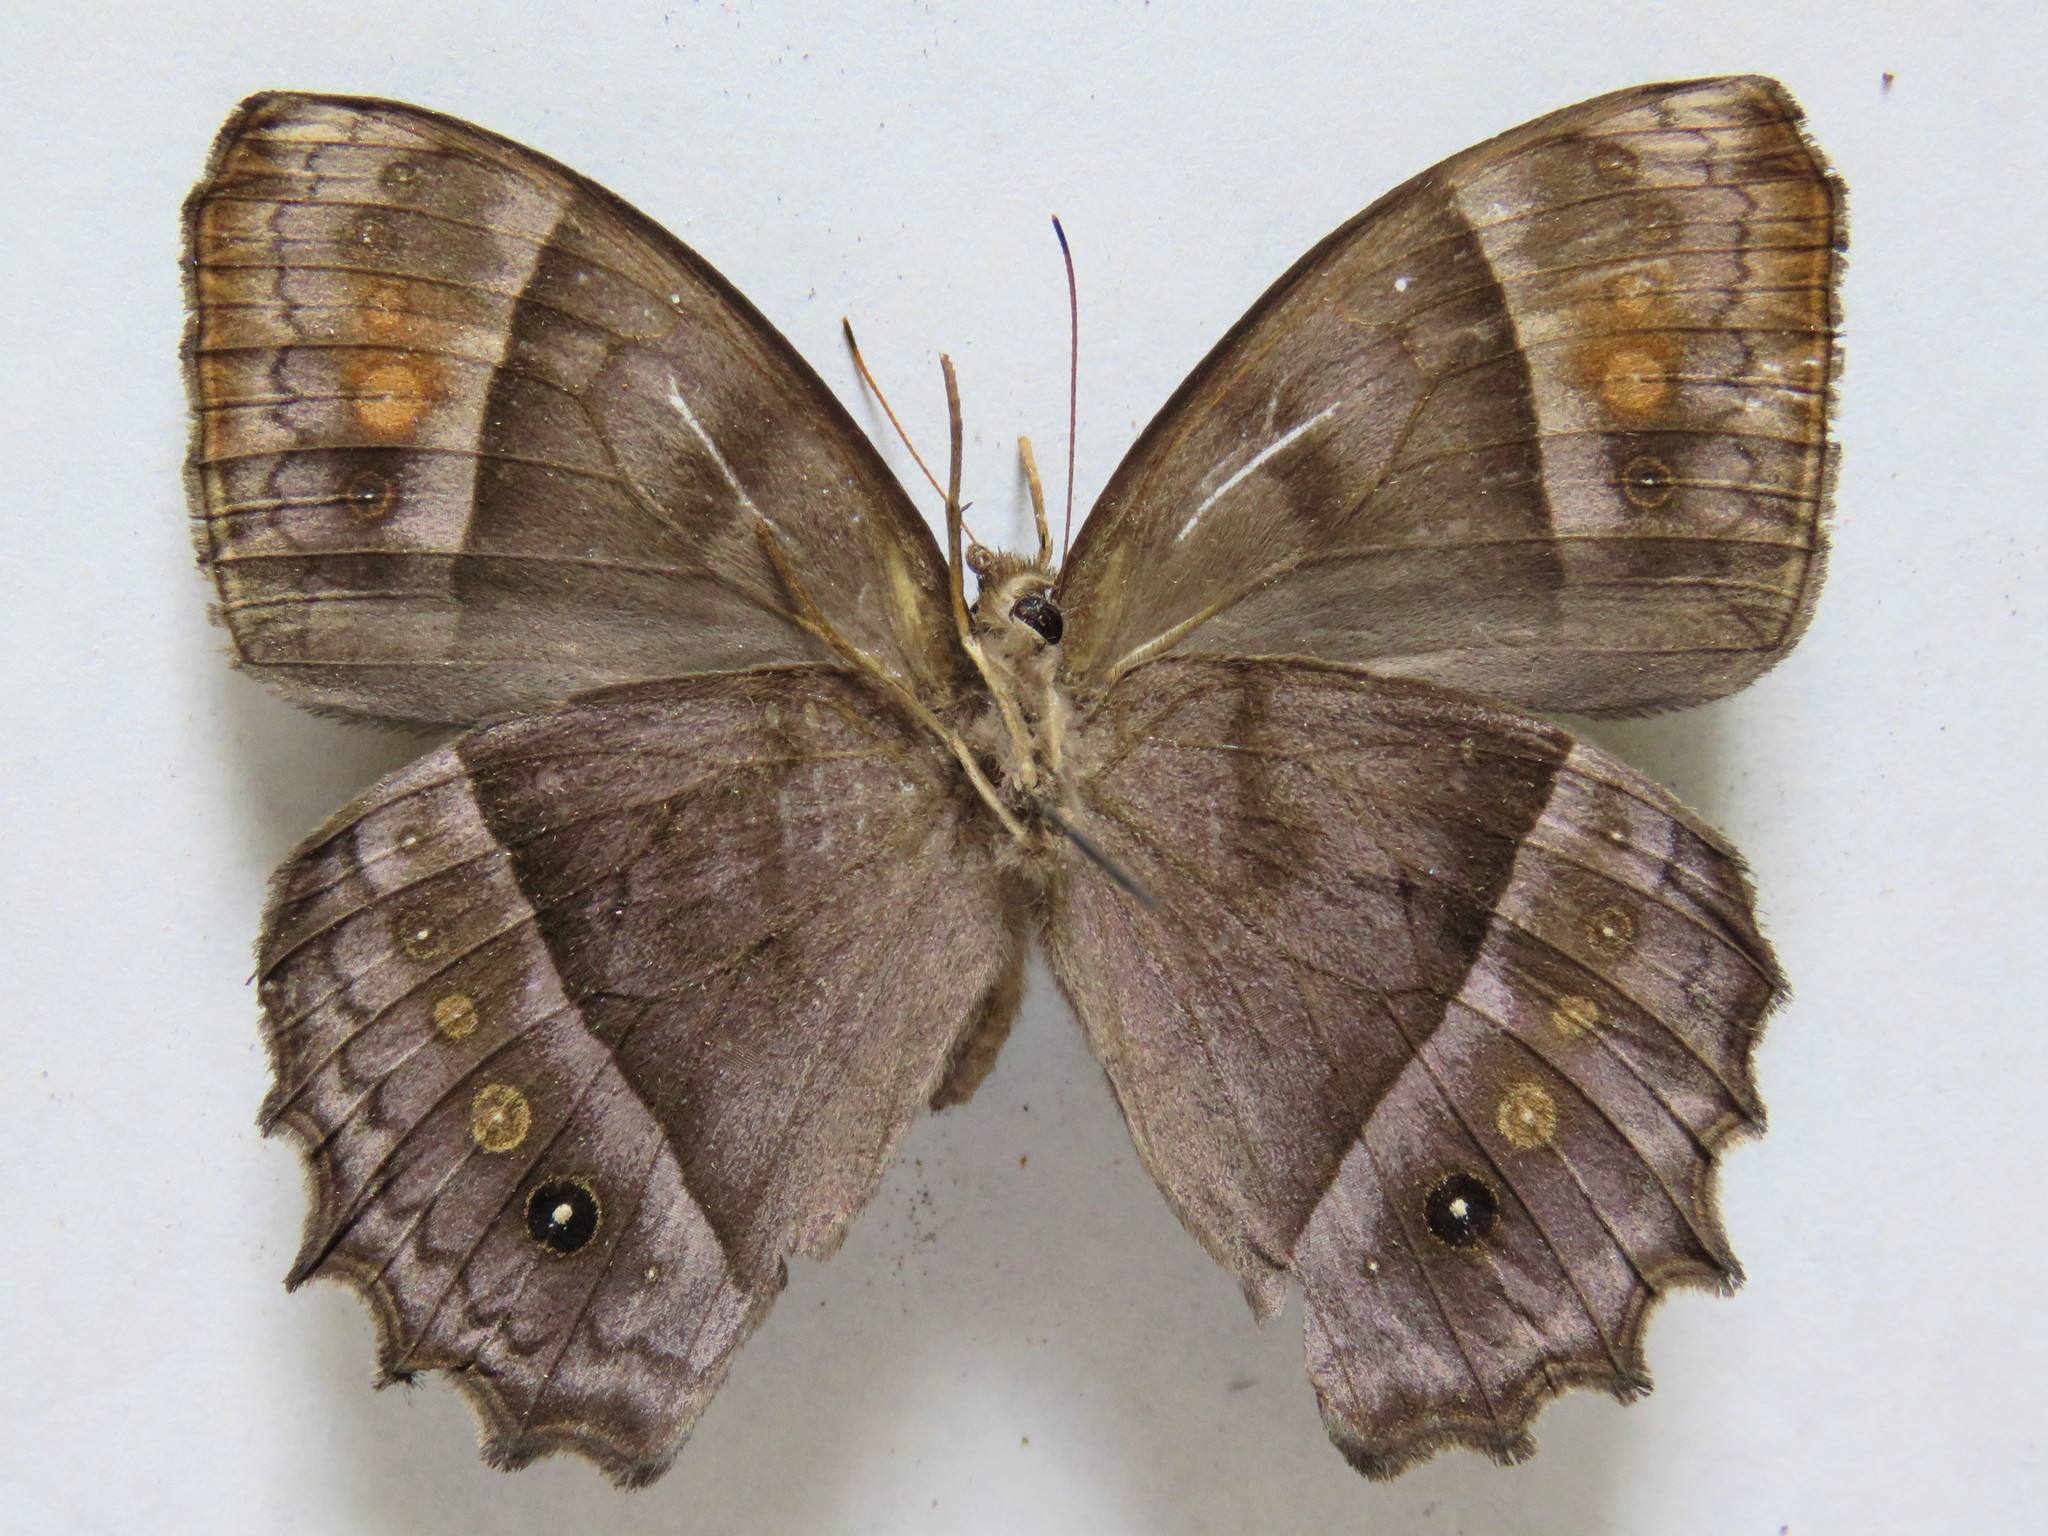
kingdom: Animalia
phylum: Arthropoda
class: Insecta
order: Lepidoptera
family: Nymphalidae
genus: Taygetis
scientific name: Taygetis andromeda
